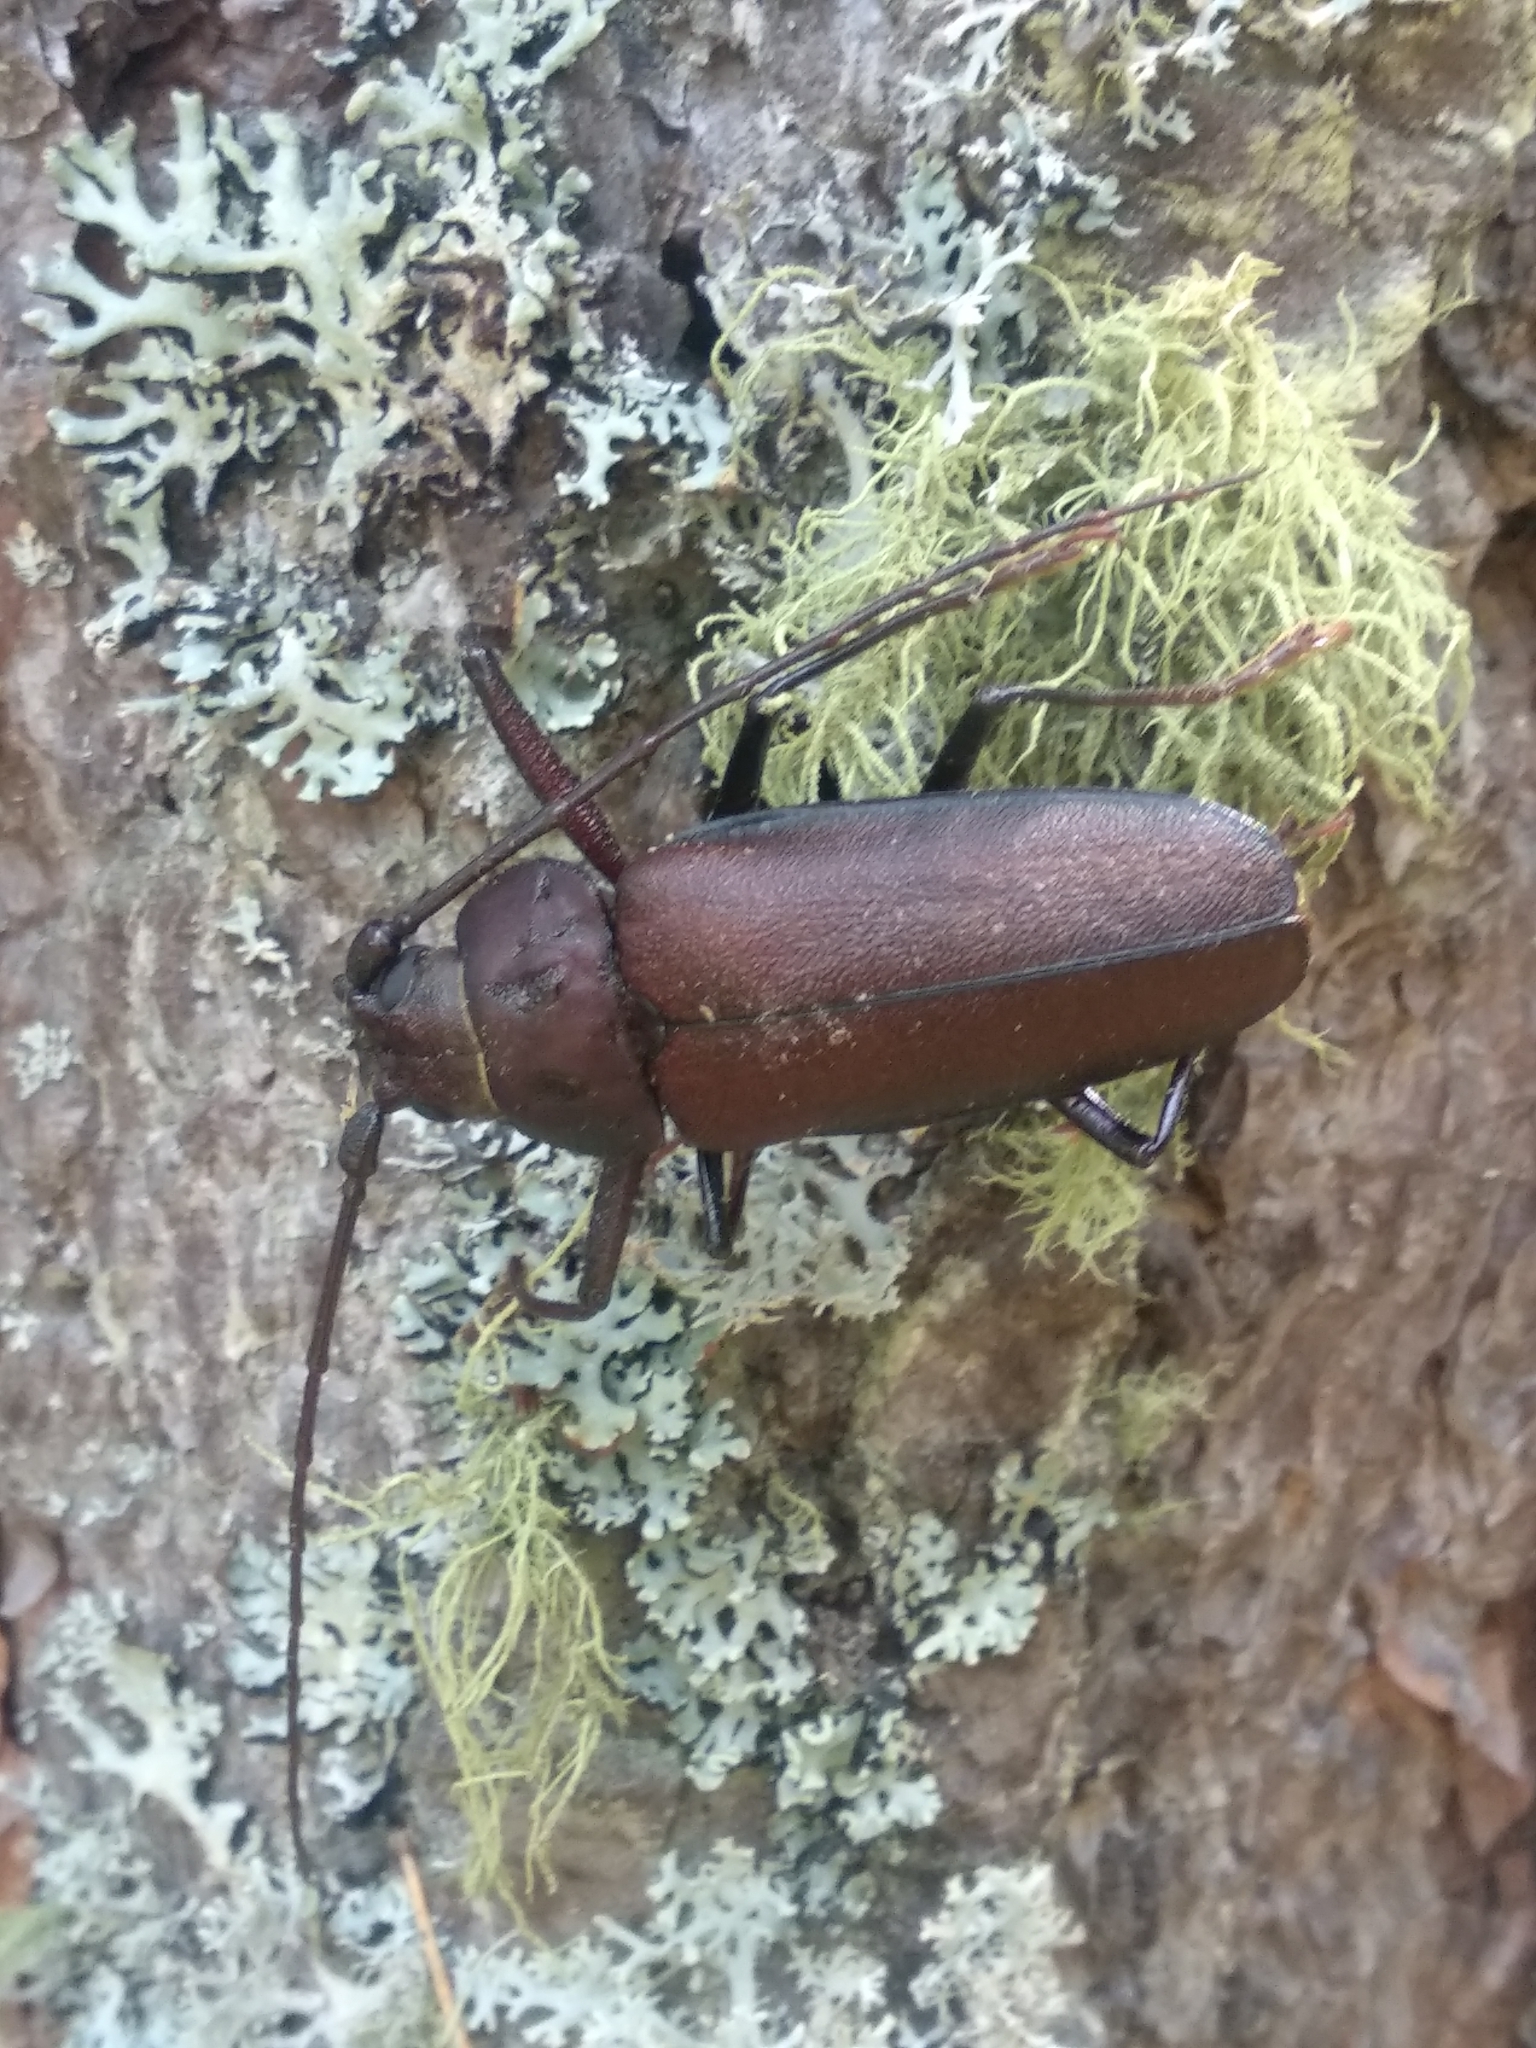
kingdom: Animalia
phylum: Arthropoda
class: Insecta
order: Coleoptera
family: Cerambycidae
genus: Ergates
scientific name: Ergates faber
